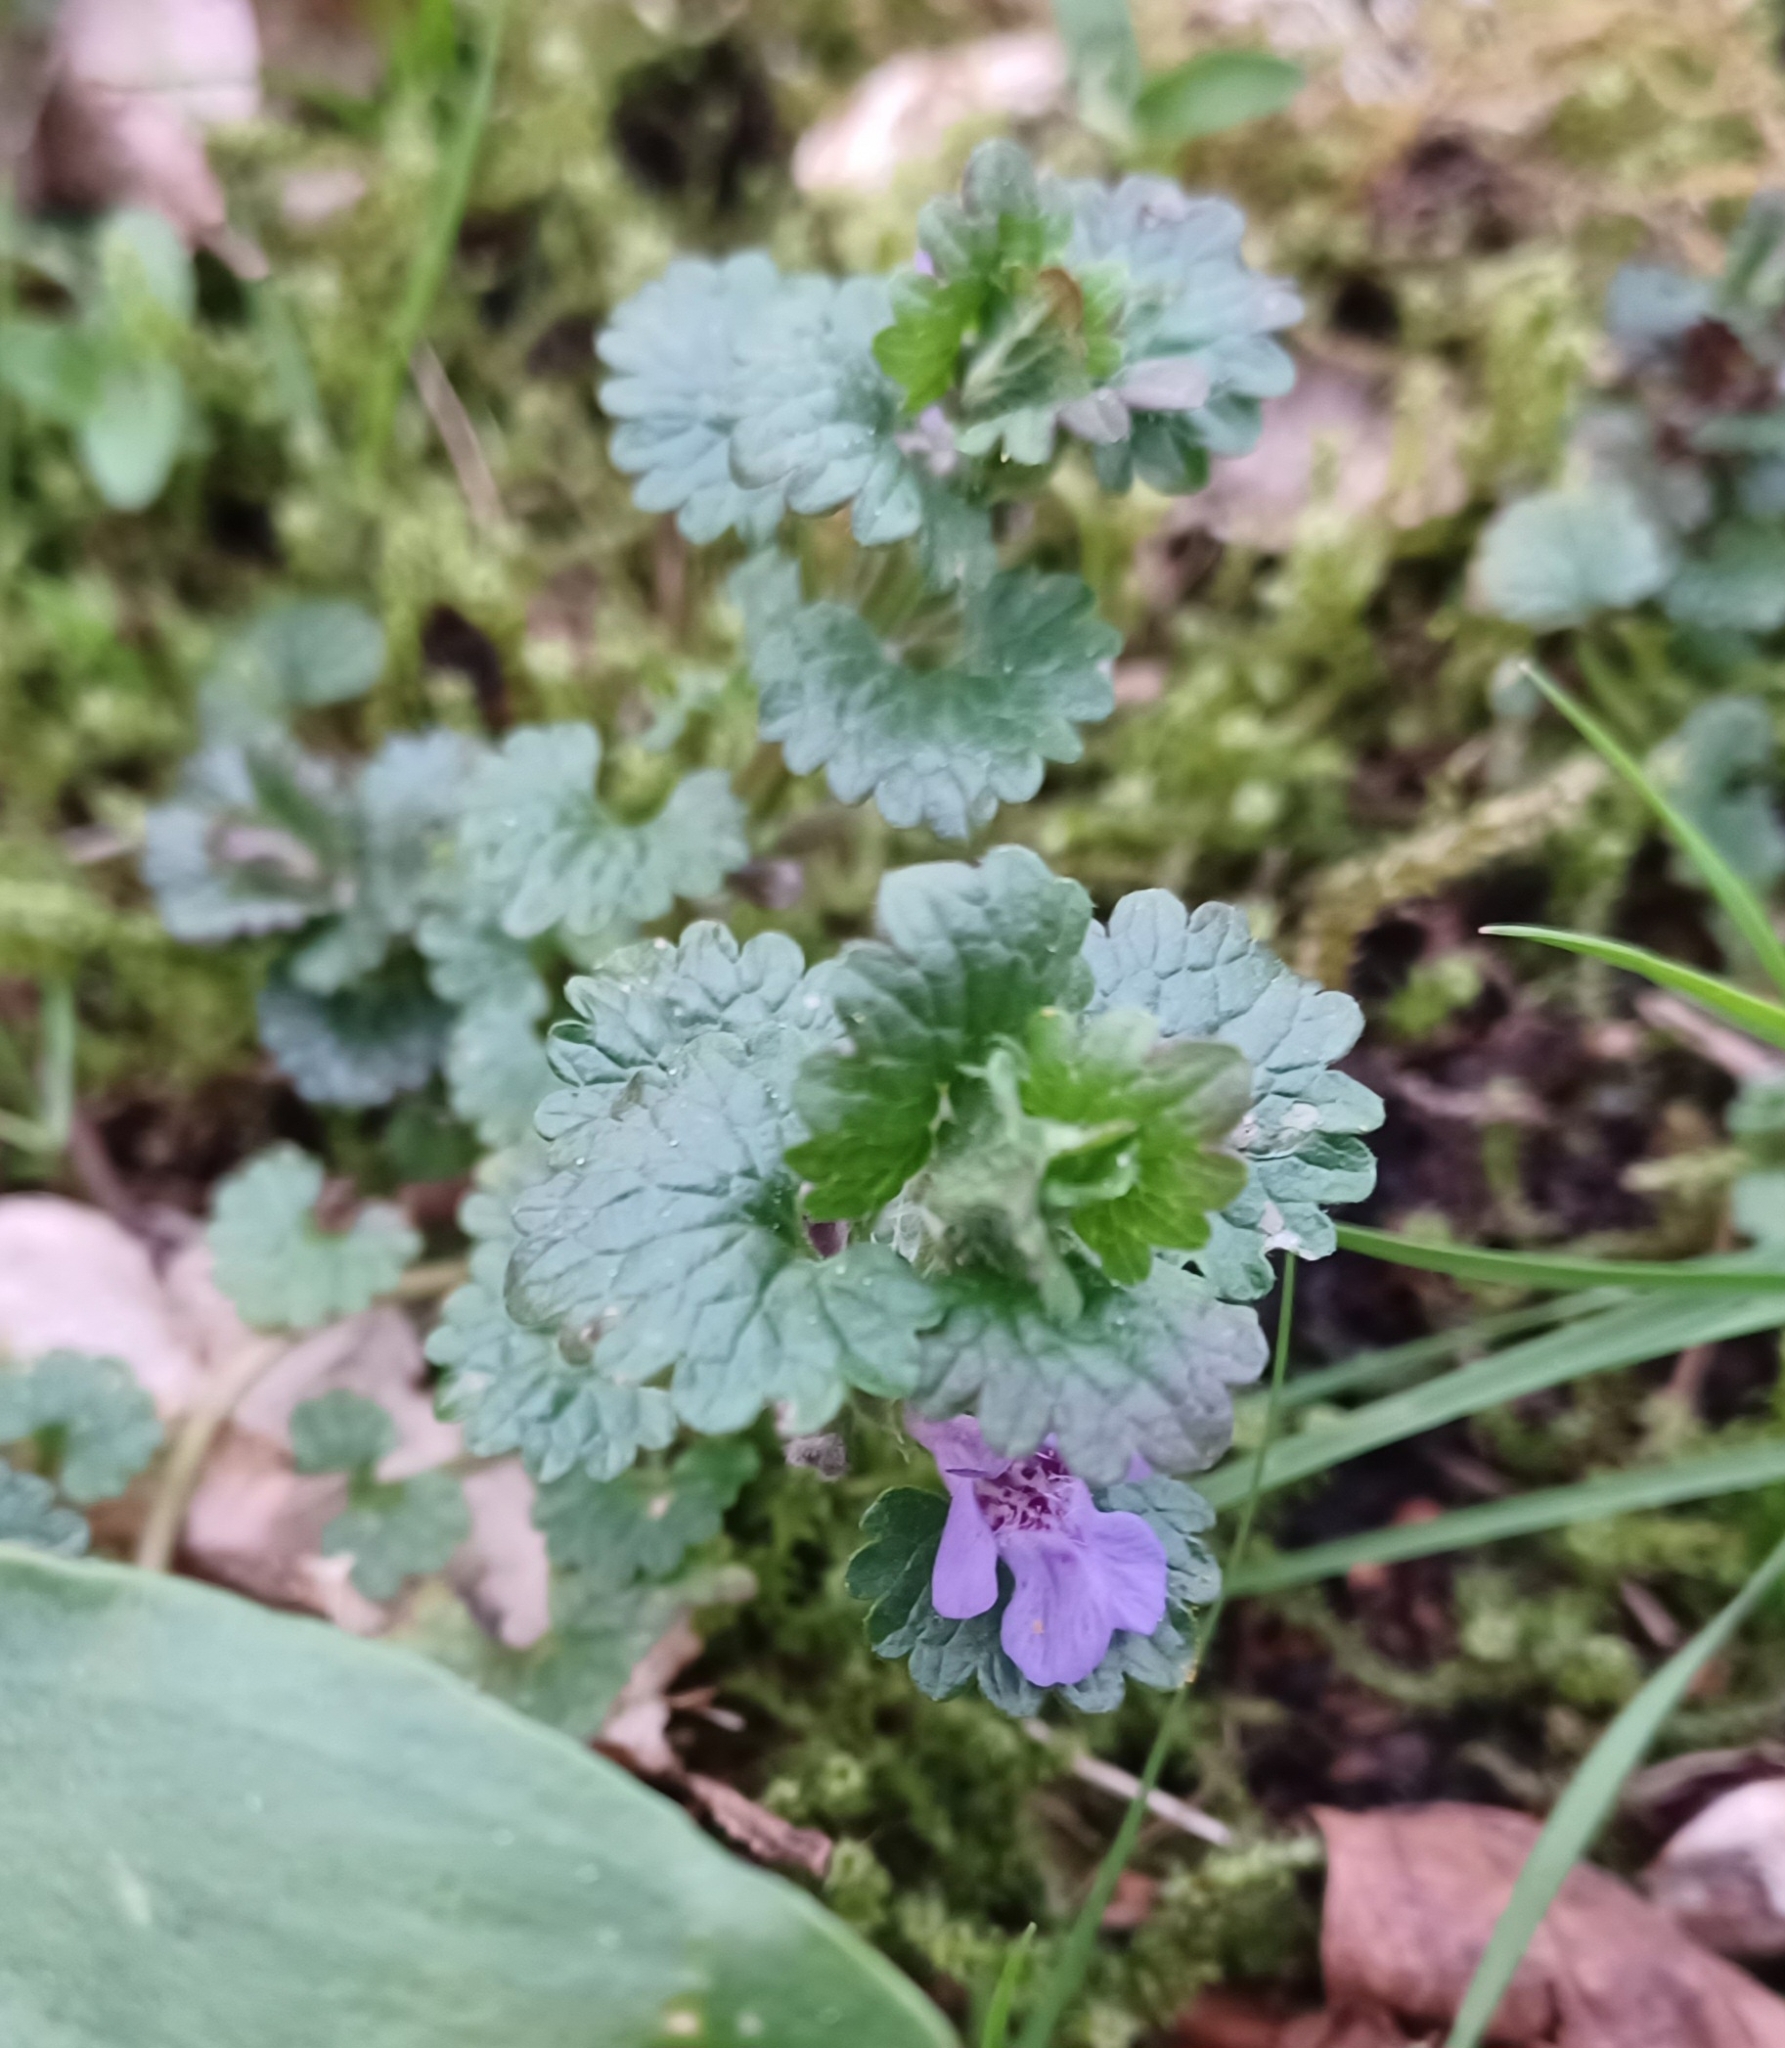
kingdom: Plantae
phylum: Tracheophyta
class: Magnoliopsida
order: Lamiales
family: Lamiaceae
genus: Glechoma
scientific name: Glechoma hederacea
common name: Ground ivy
